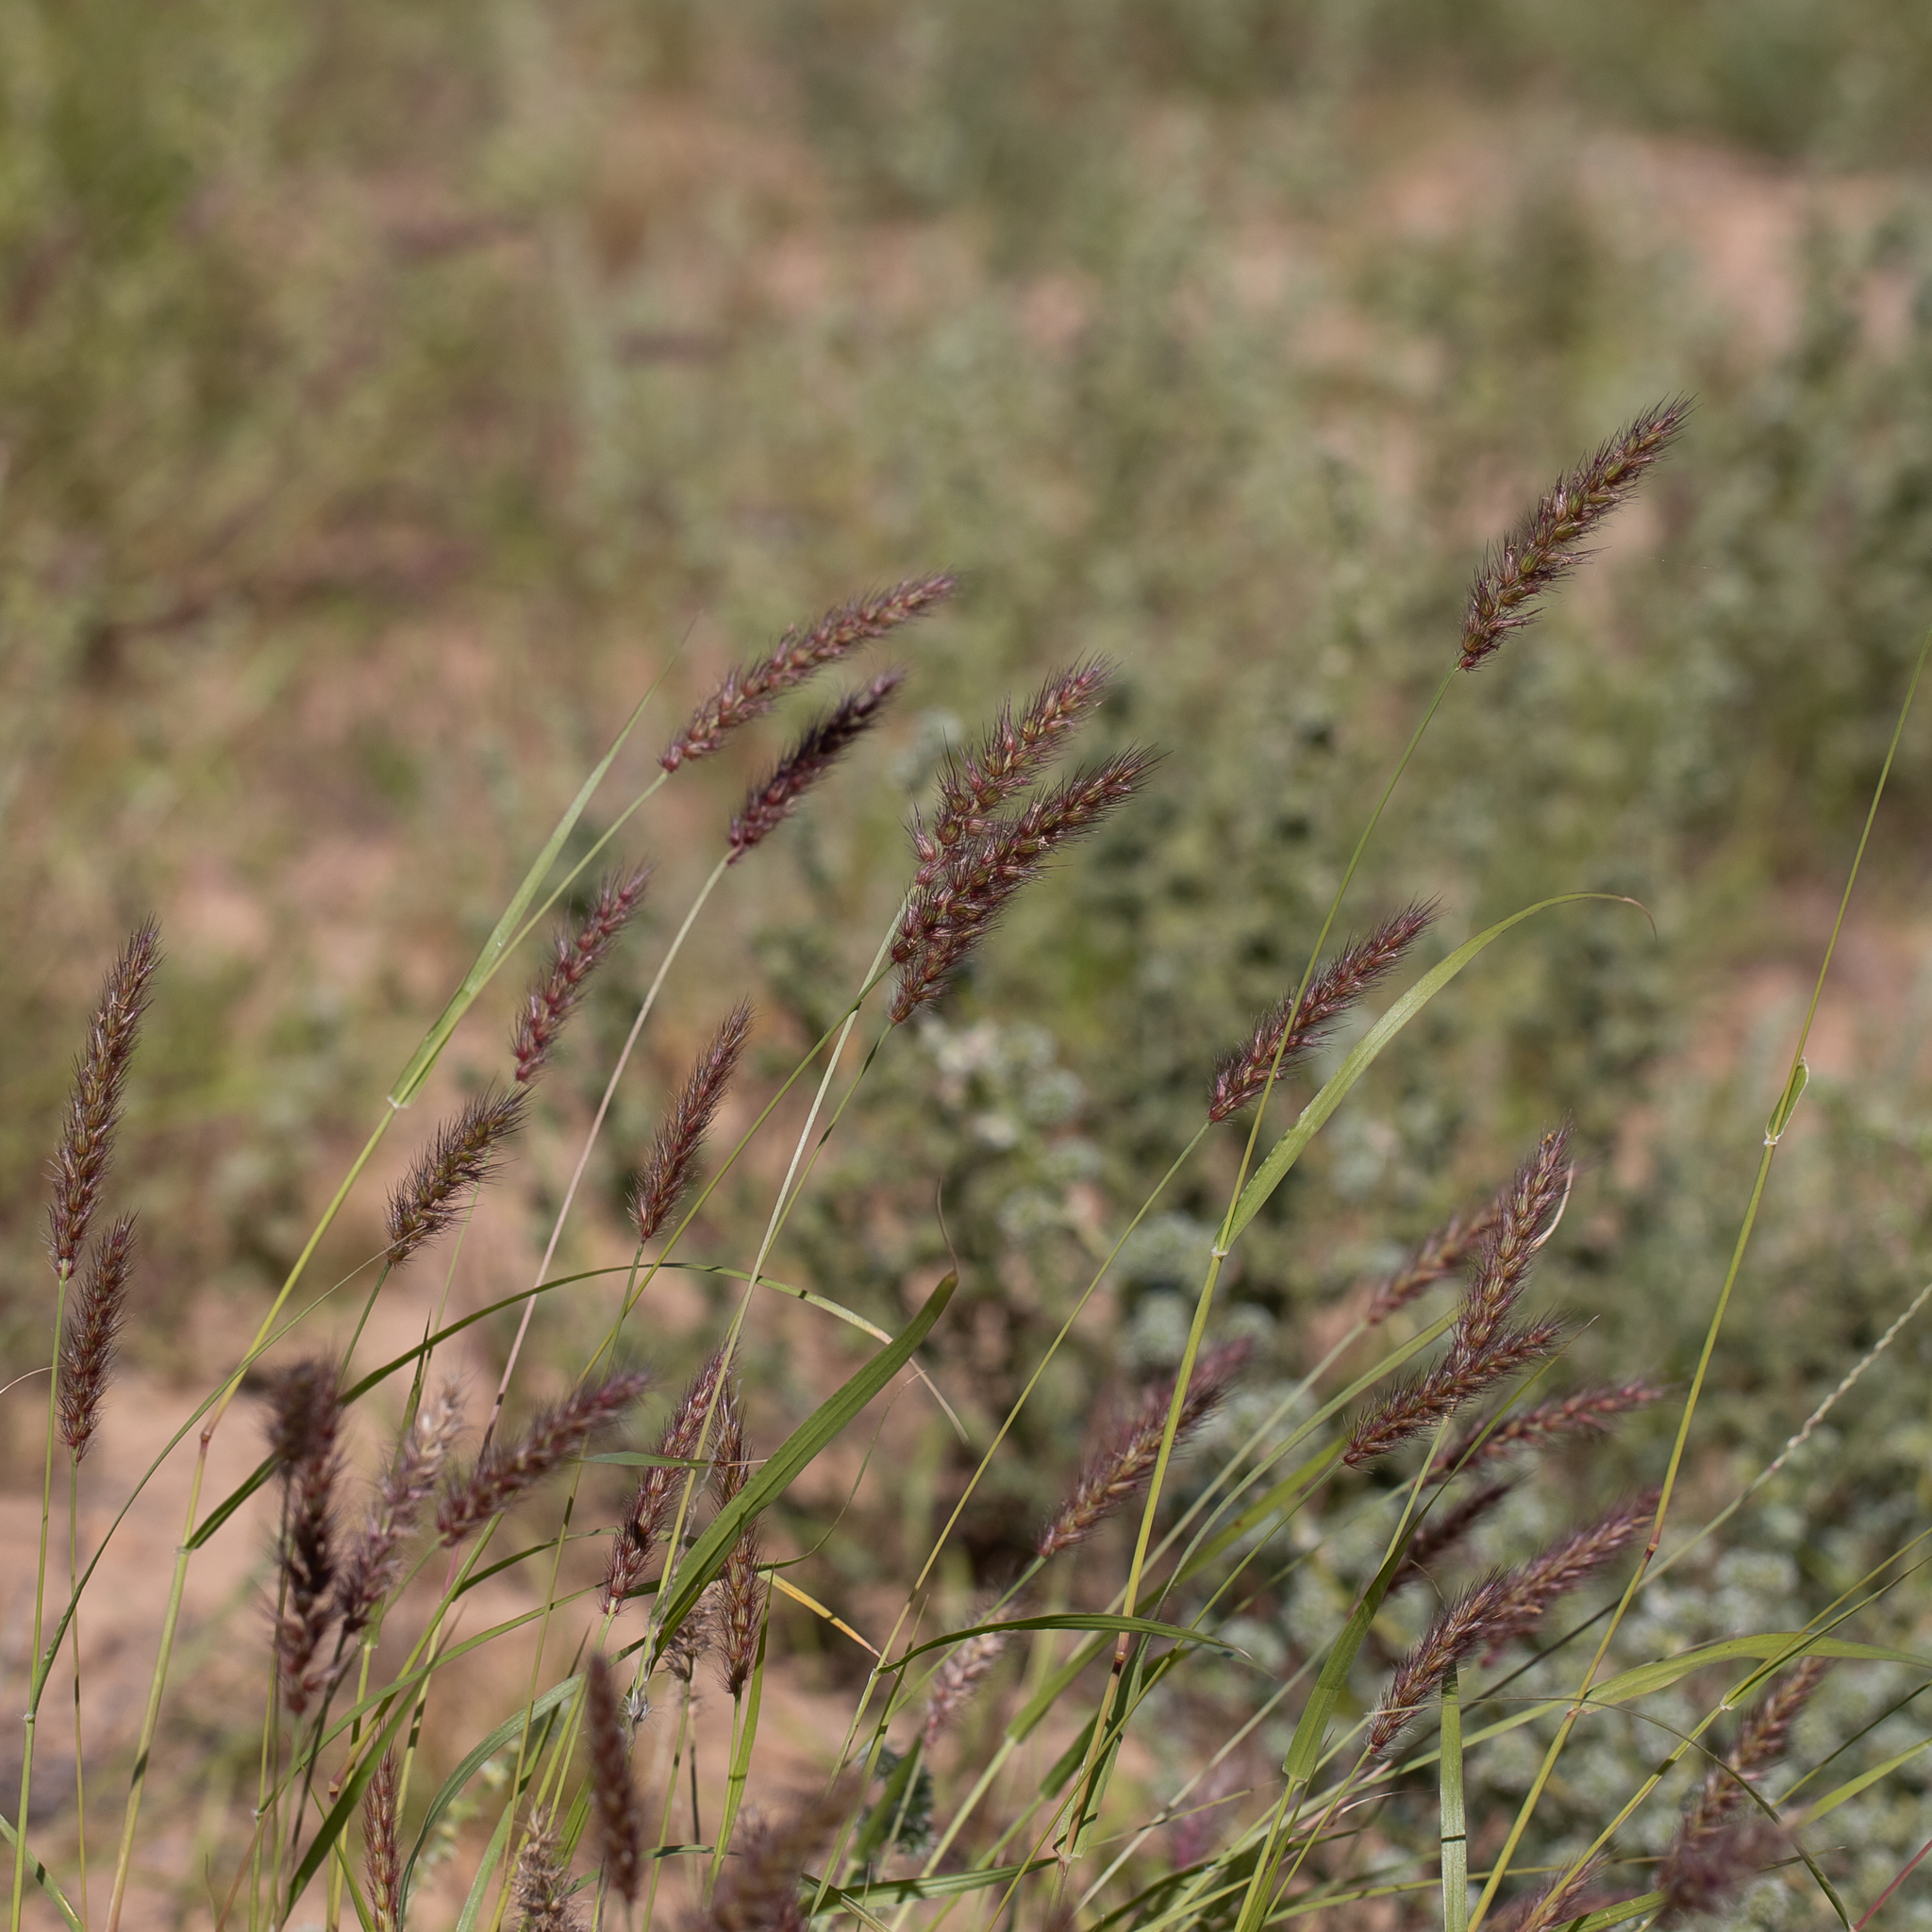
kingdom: Plantae
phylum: Tracheophyta
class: Liliopsida
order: Poales
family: Poaceae
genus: Cenchrus
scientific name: Cenchrus ciliaris
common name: Buffelgrass
